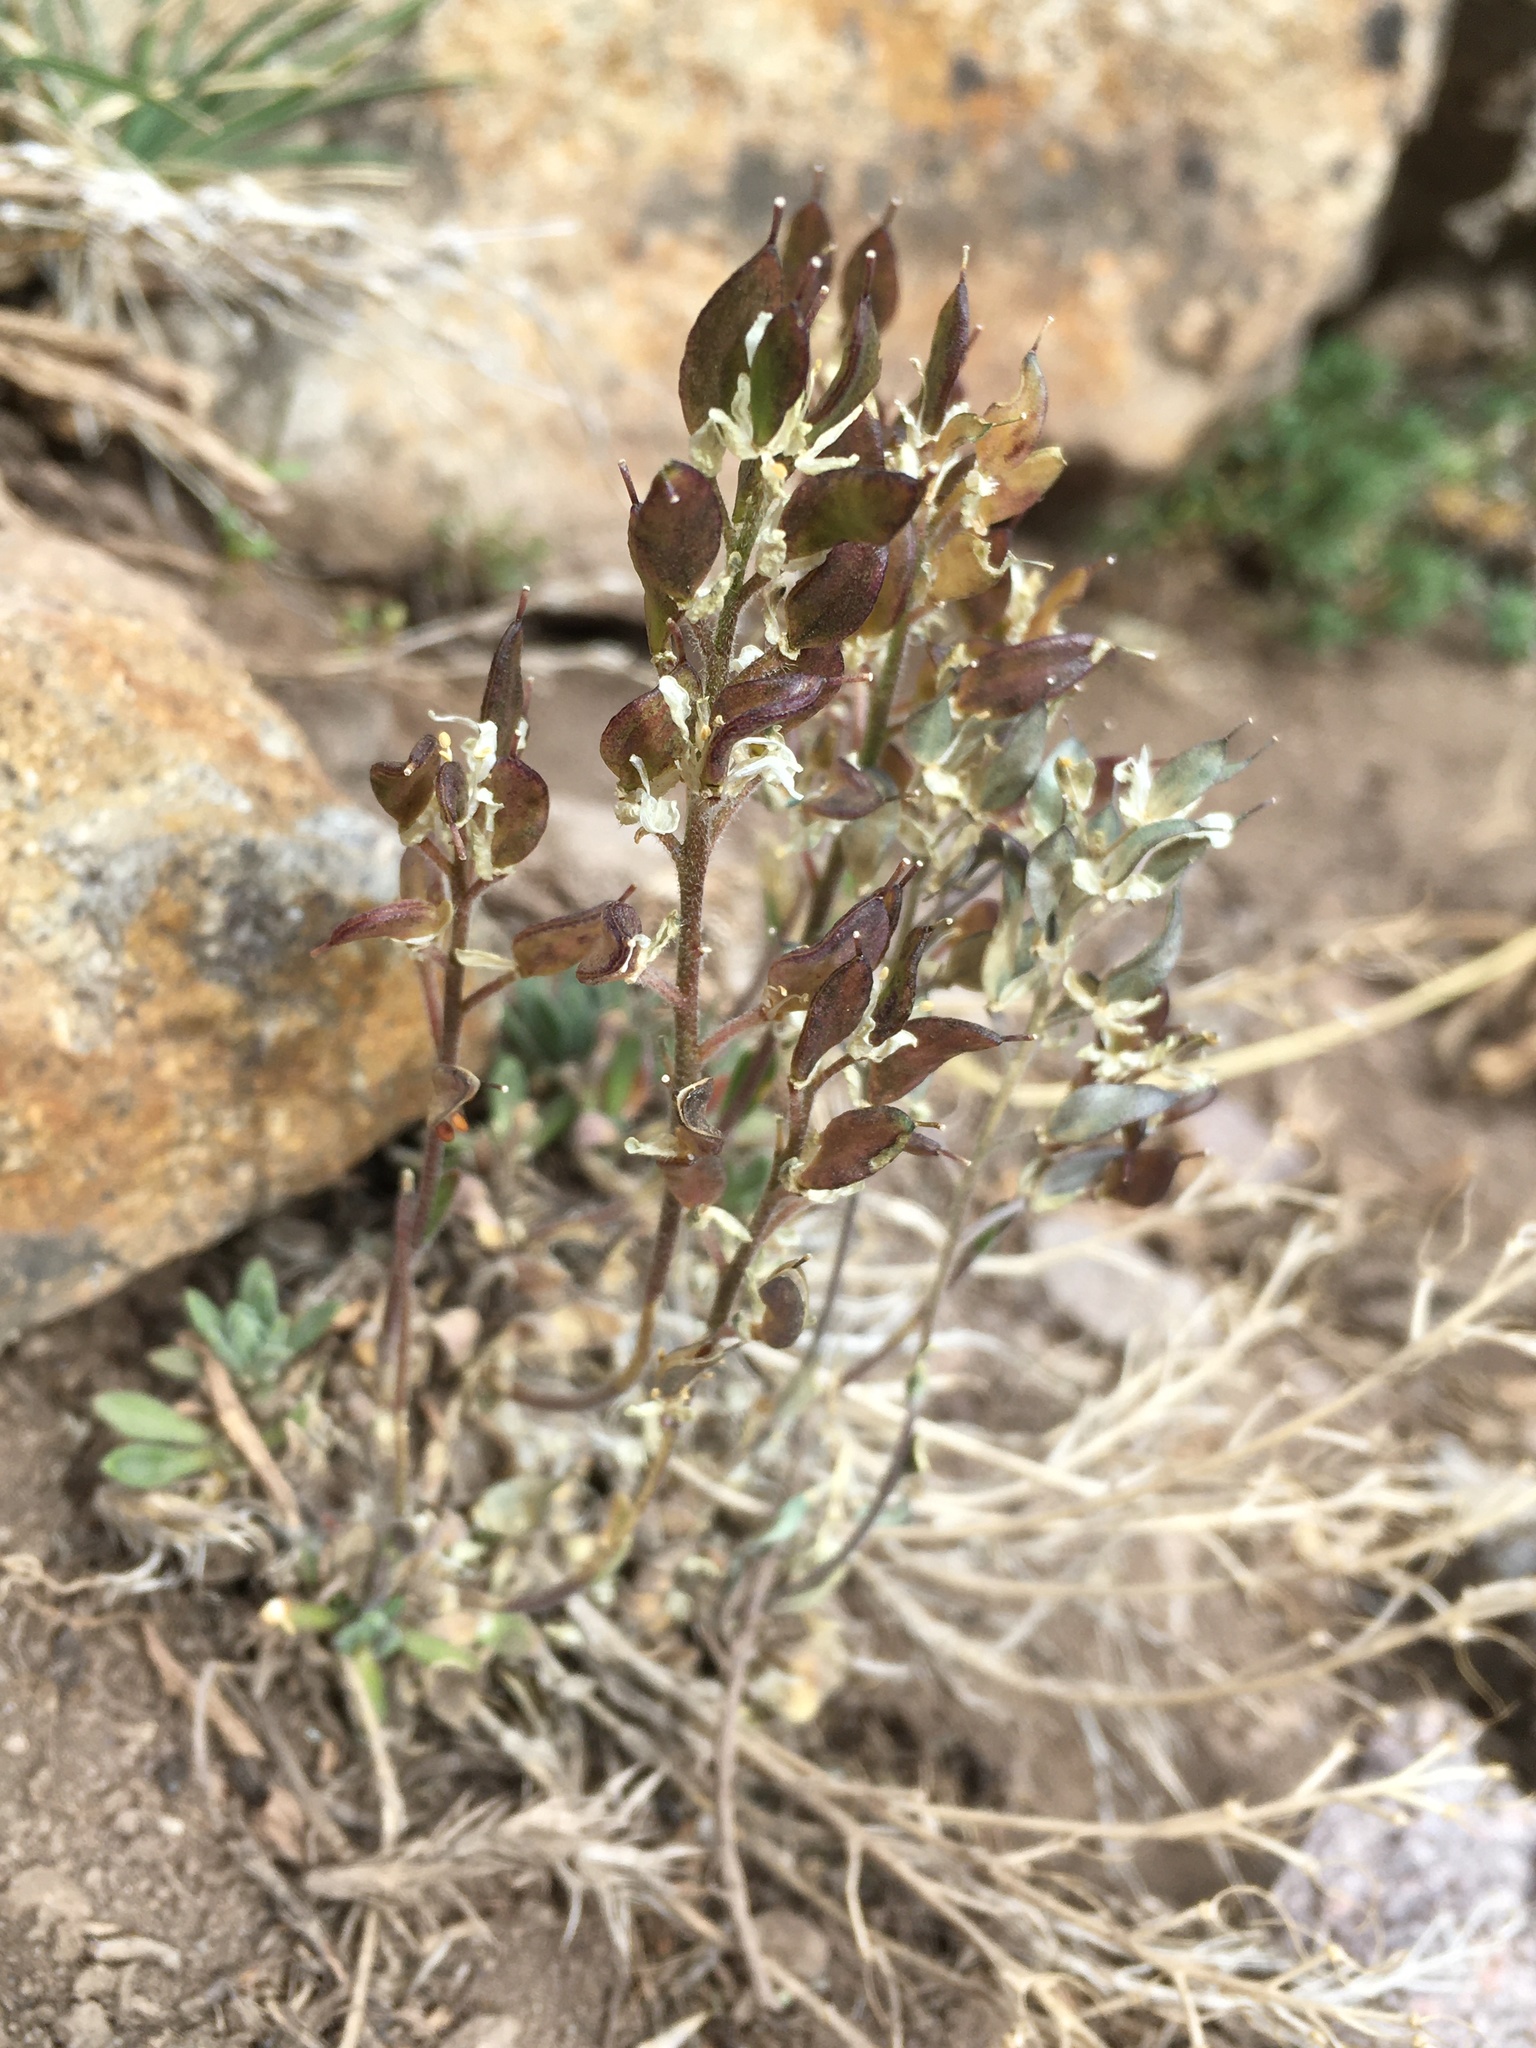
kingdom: Plantae
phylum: Tracheophyta
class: Magnoliopsida
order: Brassicales
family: Brassicaceae
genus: Draba
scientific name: Draba gilliesii
